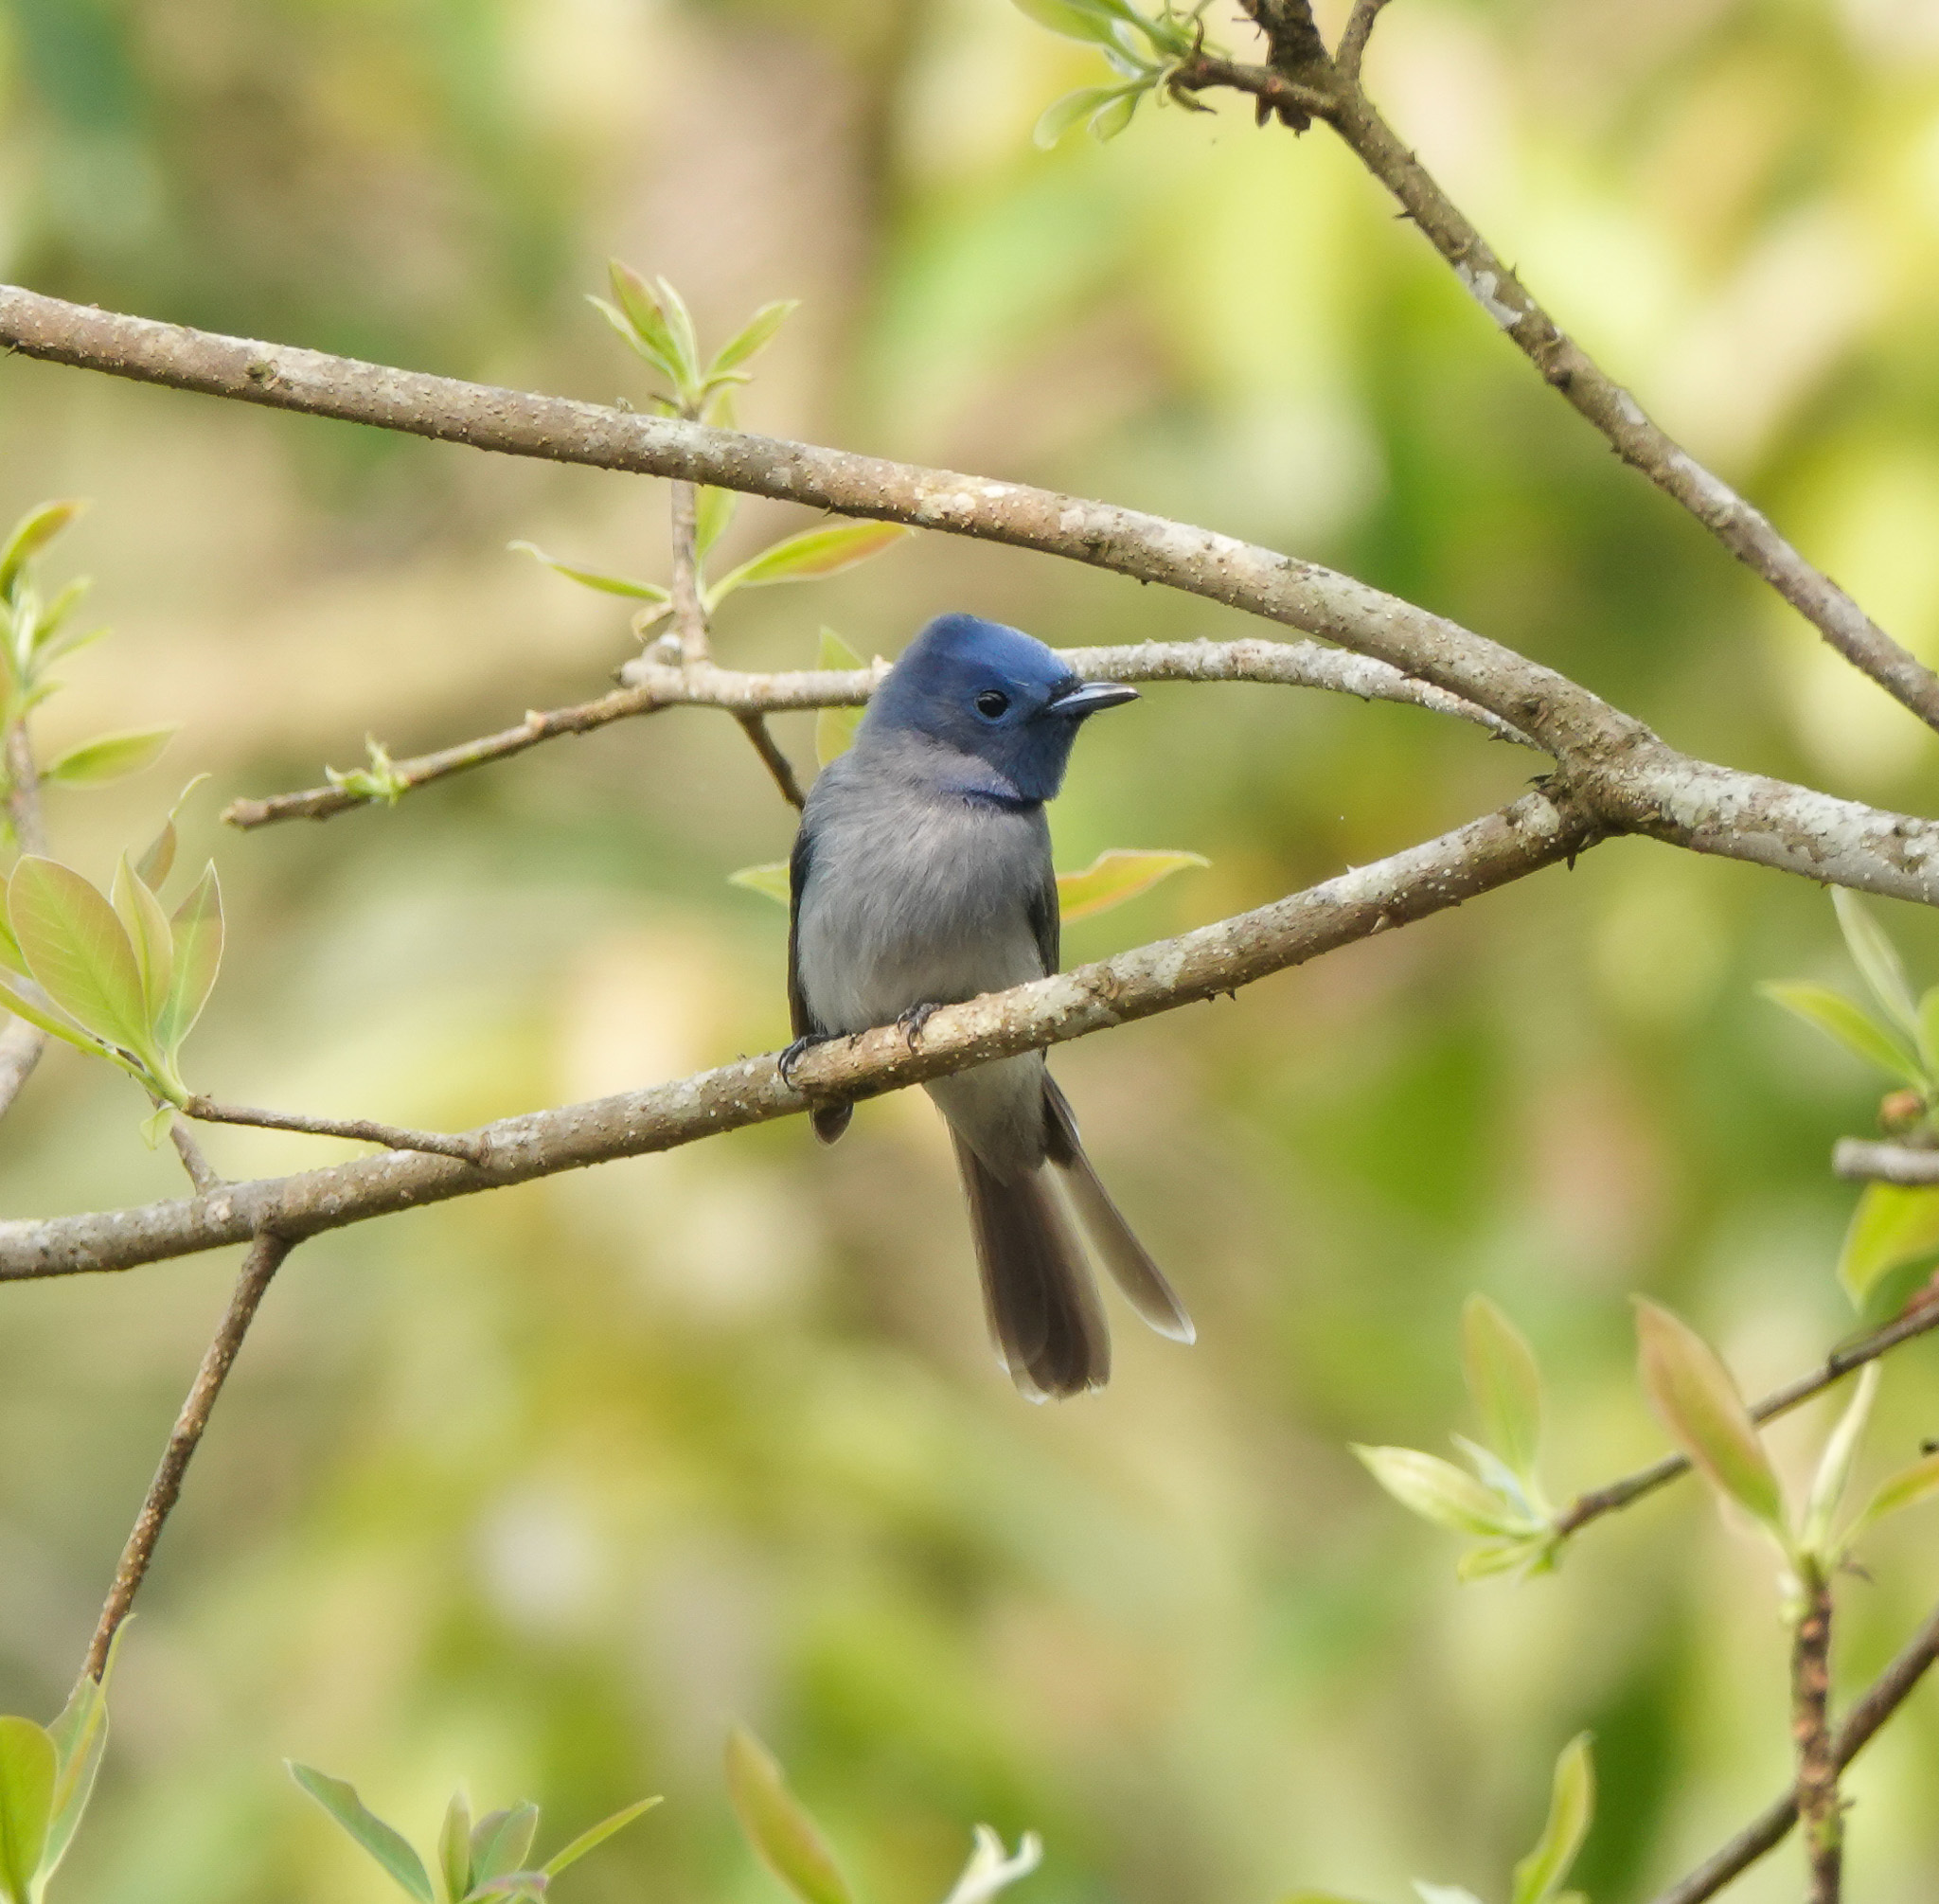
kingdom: Animalia
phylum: Chordata
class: Aves
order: Passeriformes
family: Monarchidae
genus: Hypothymis
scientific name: Hypothymis azurea
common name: Black-naped monarch
